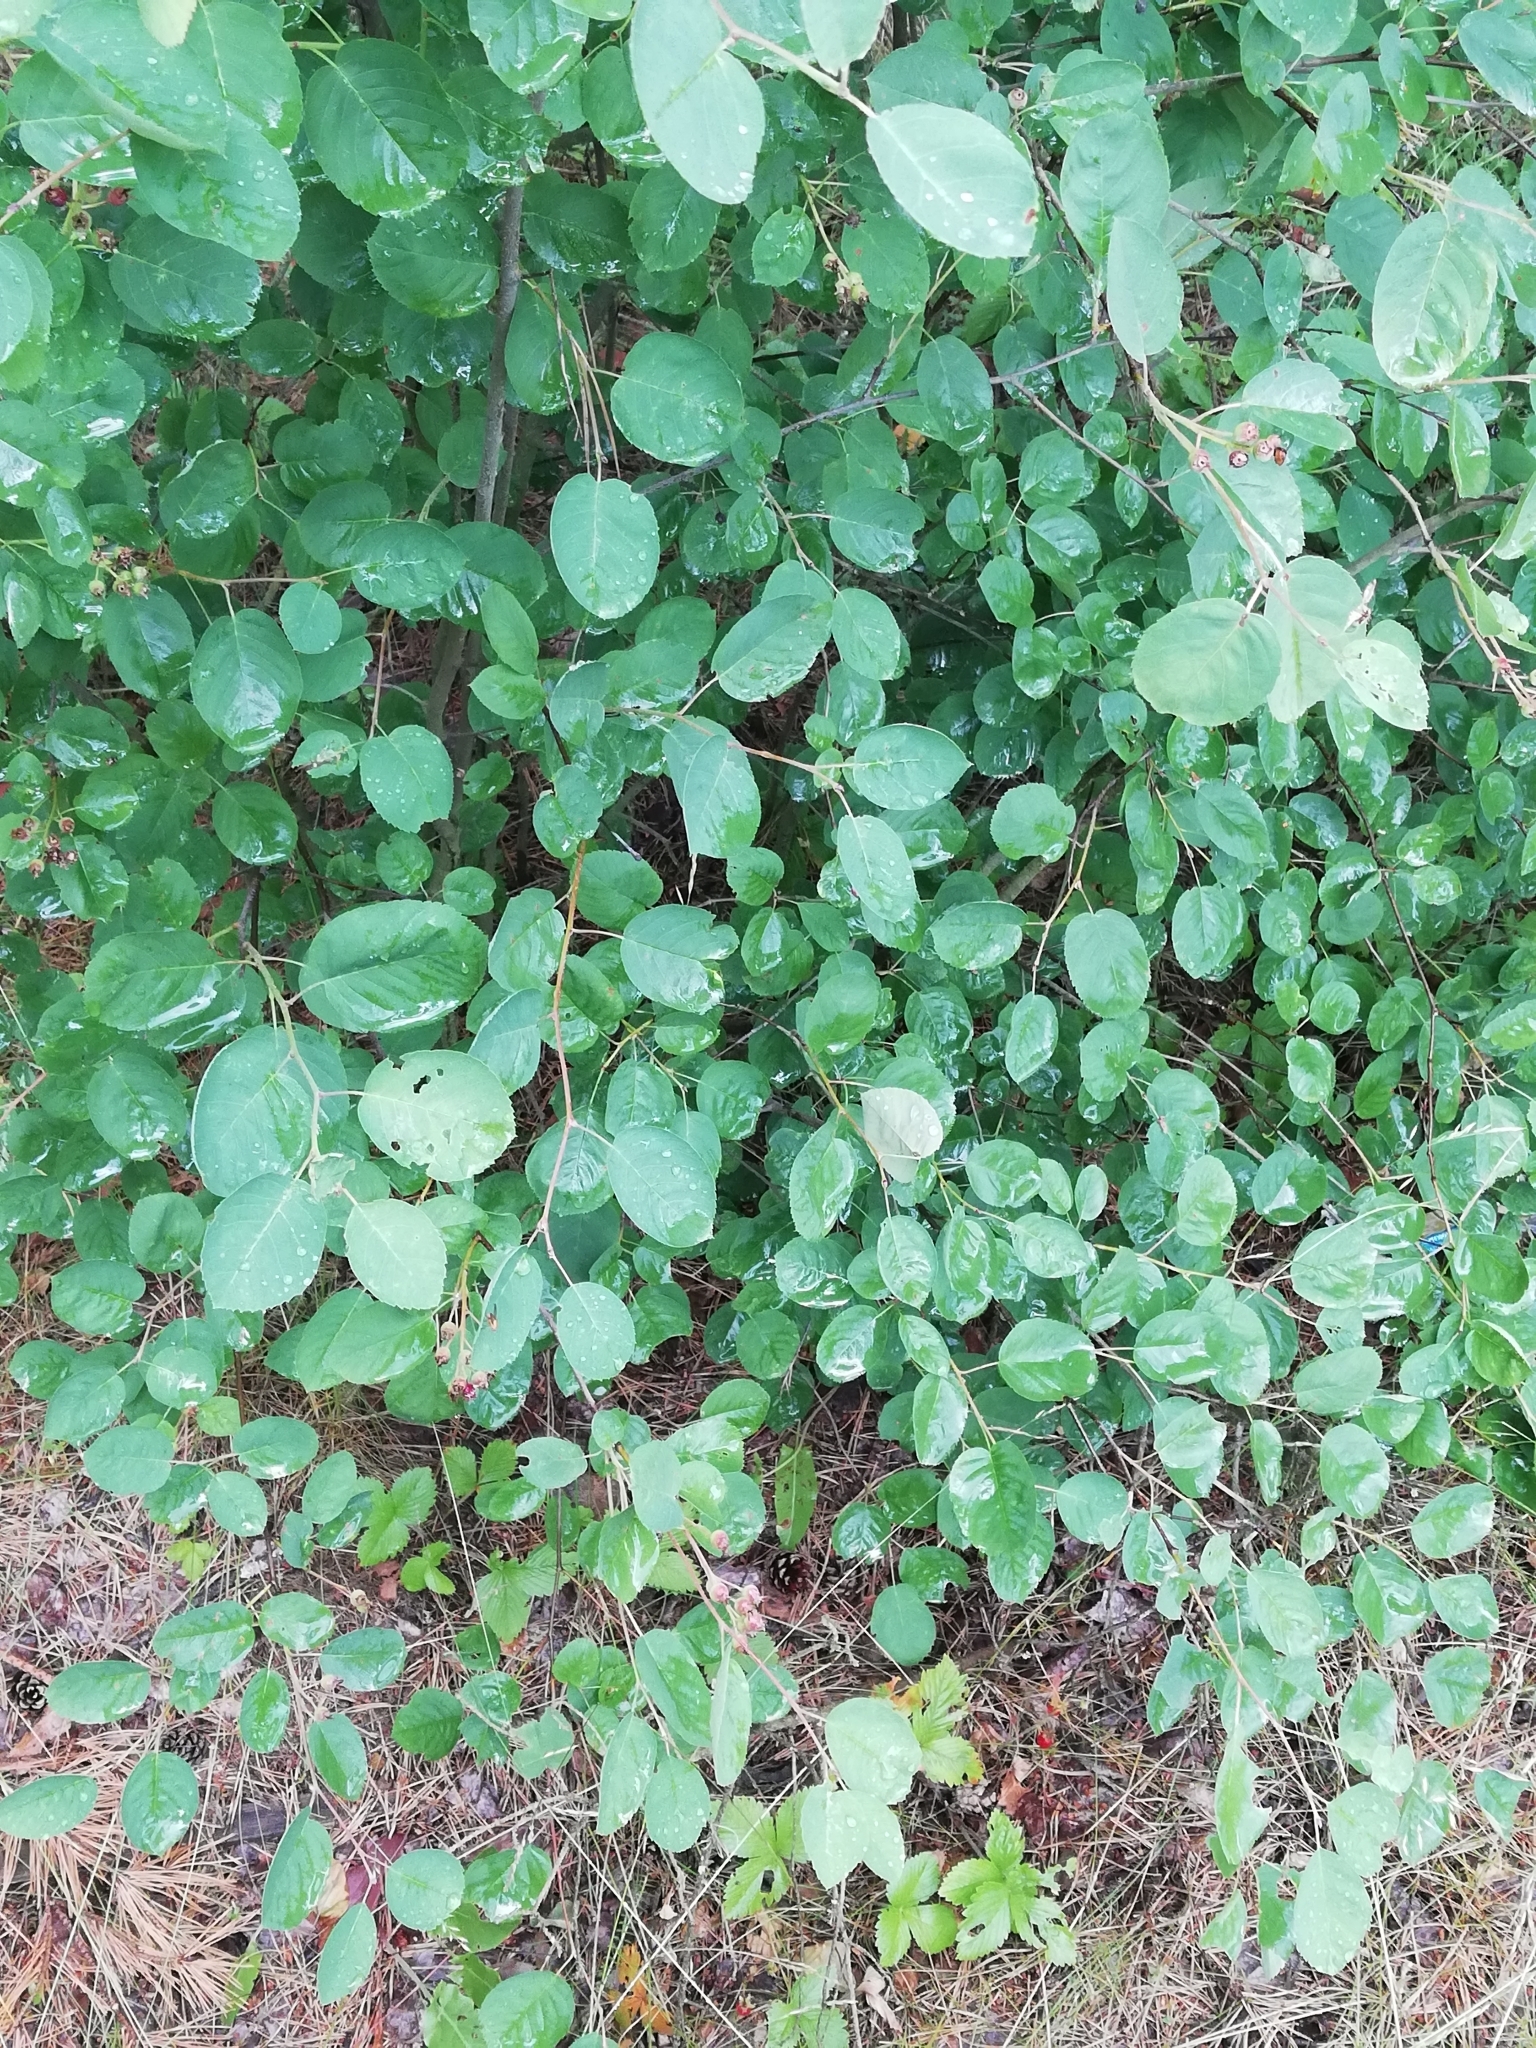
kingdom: Plantae
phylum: Tracheophyta
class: Magnoliopsida
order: Rosales
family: Rosaceae
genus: Amelanchier
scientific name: Amelanchier
